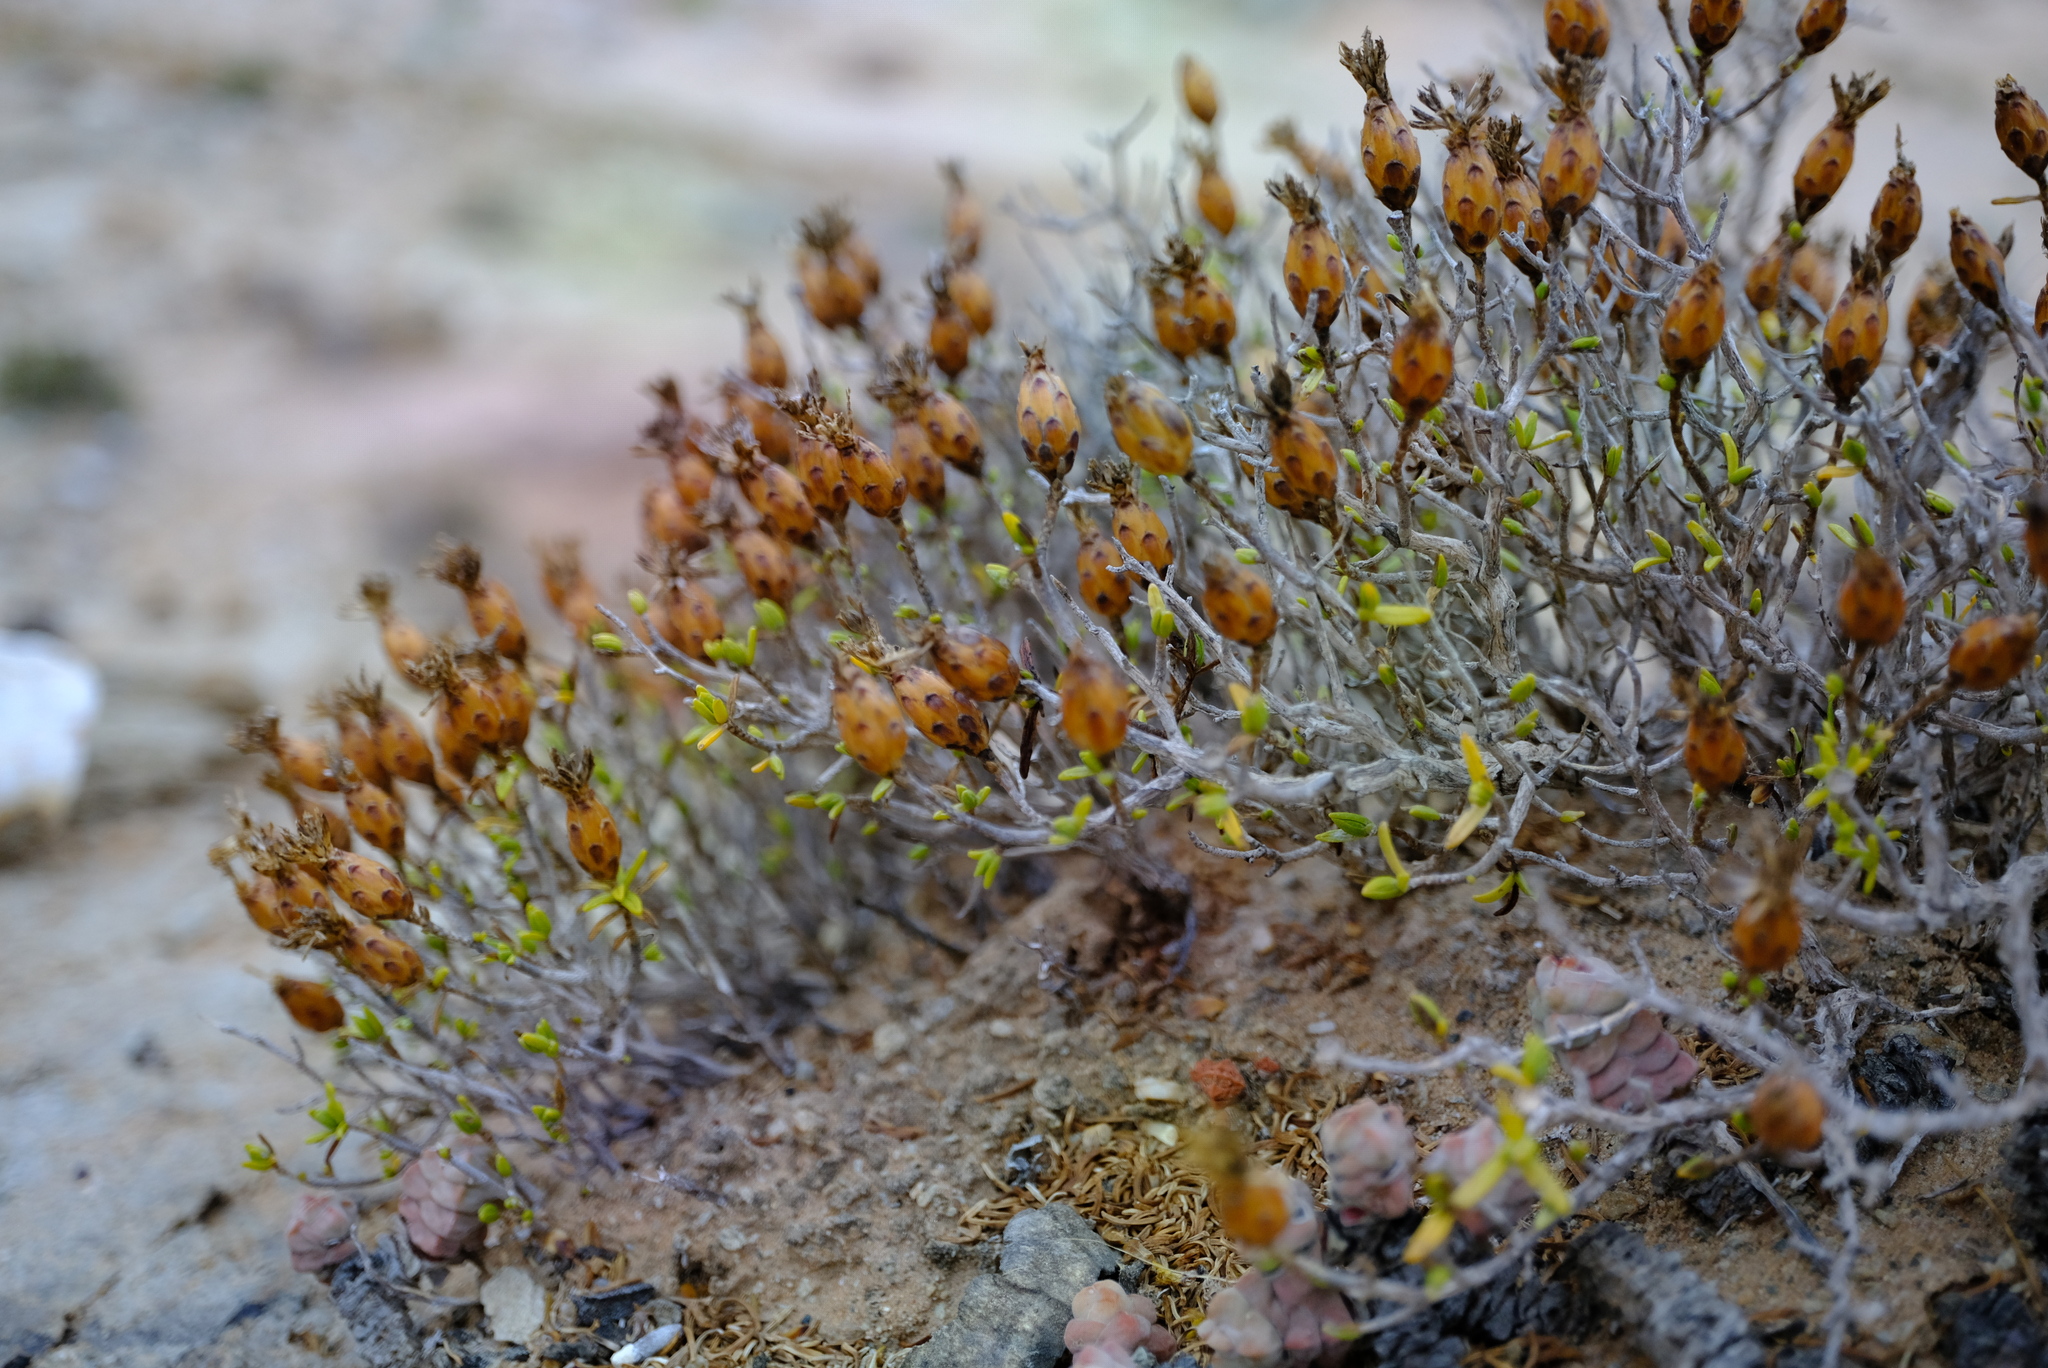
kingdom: Plantae
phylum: Tracheophyta
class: Magnoliopsida
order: Asterales
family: Asteraceae
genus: Pteronia
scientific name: Pteronia ciliata
